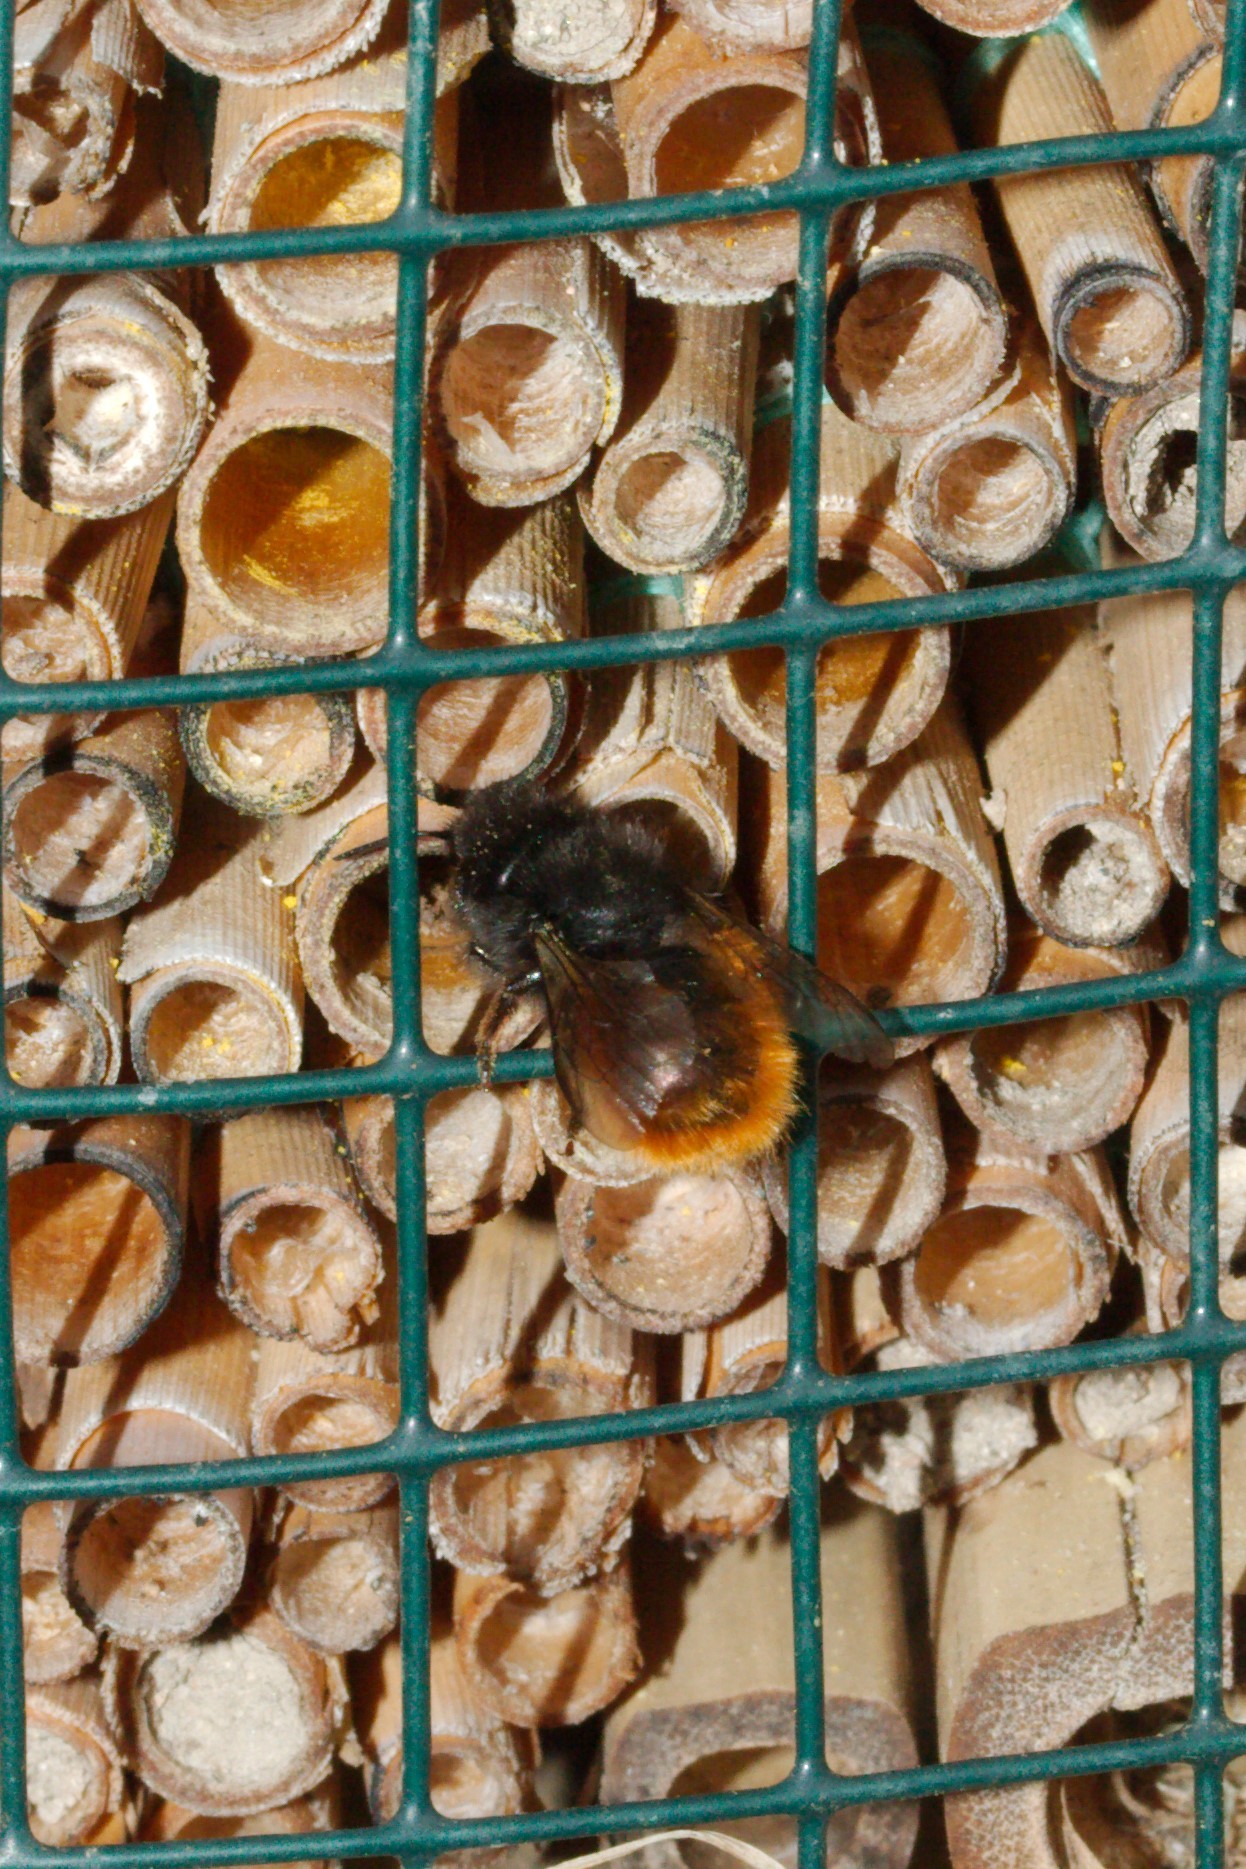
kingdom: Animalia
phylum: Arthropoda
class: Insecta
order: Hymenoptera
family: Megachilidae
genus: Osmia
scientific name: Osmia cornuta
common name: Mason bee
